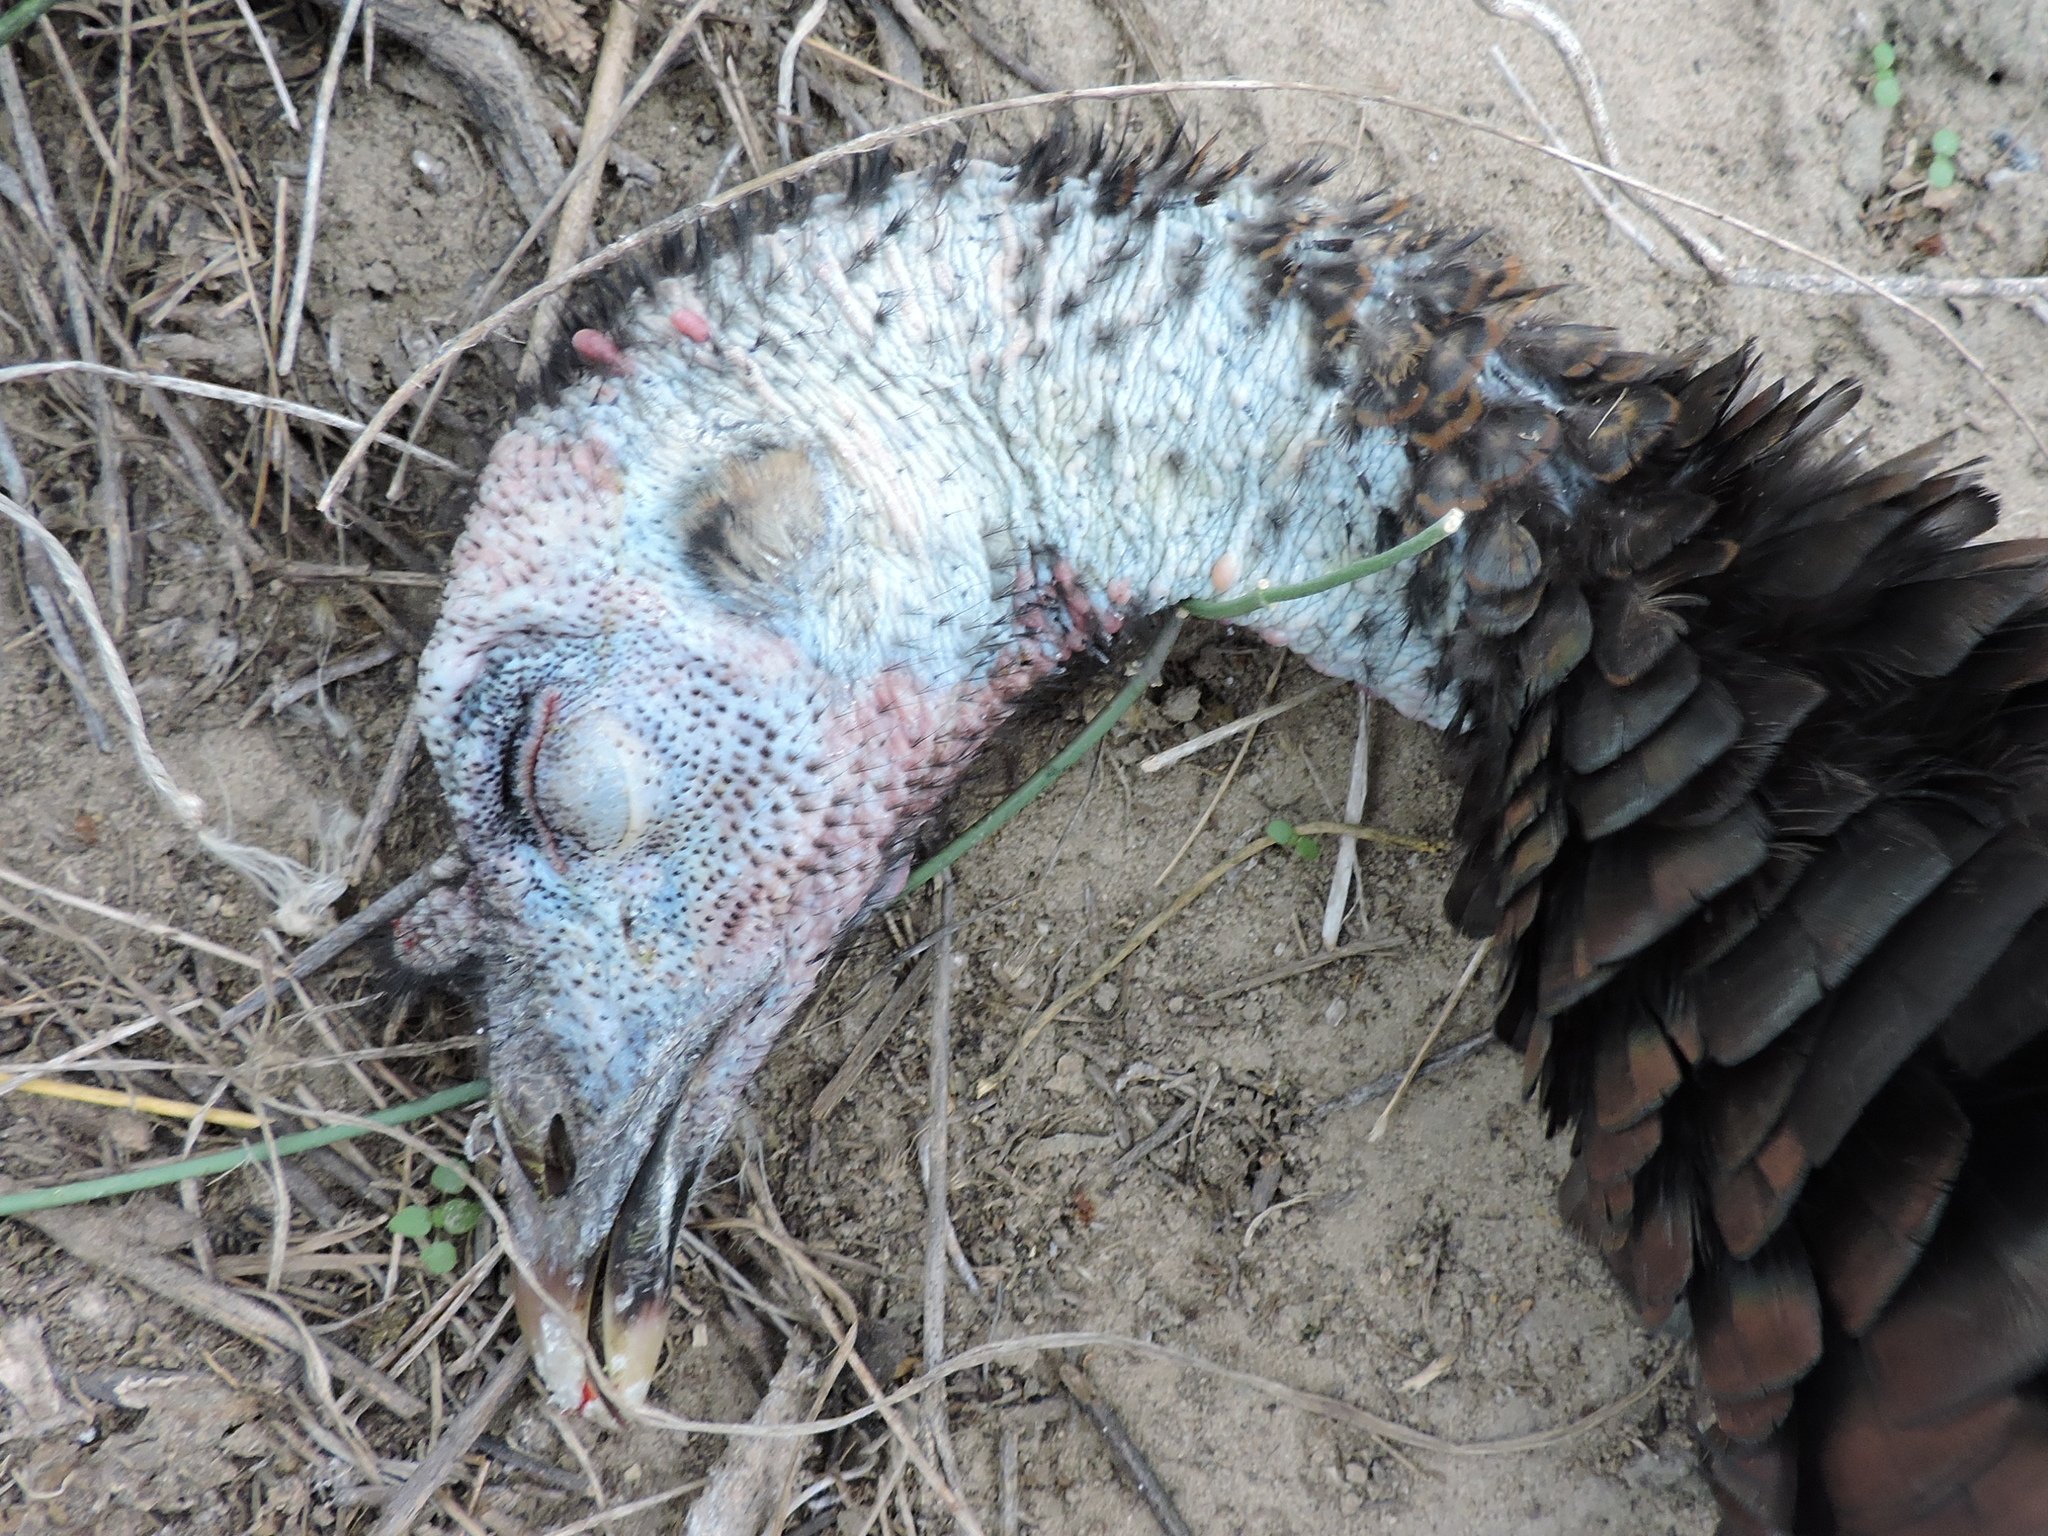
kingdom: Animalia
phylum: Chordata
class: Aves
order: Galliformes
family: Phasianidae
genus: Meleagris
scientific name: Meleagris gallopavo
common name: Wild turkey
